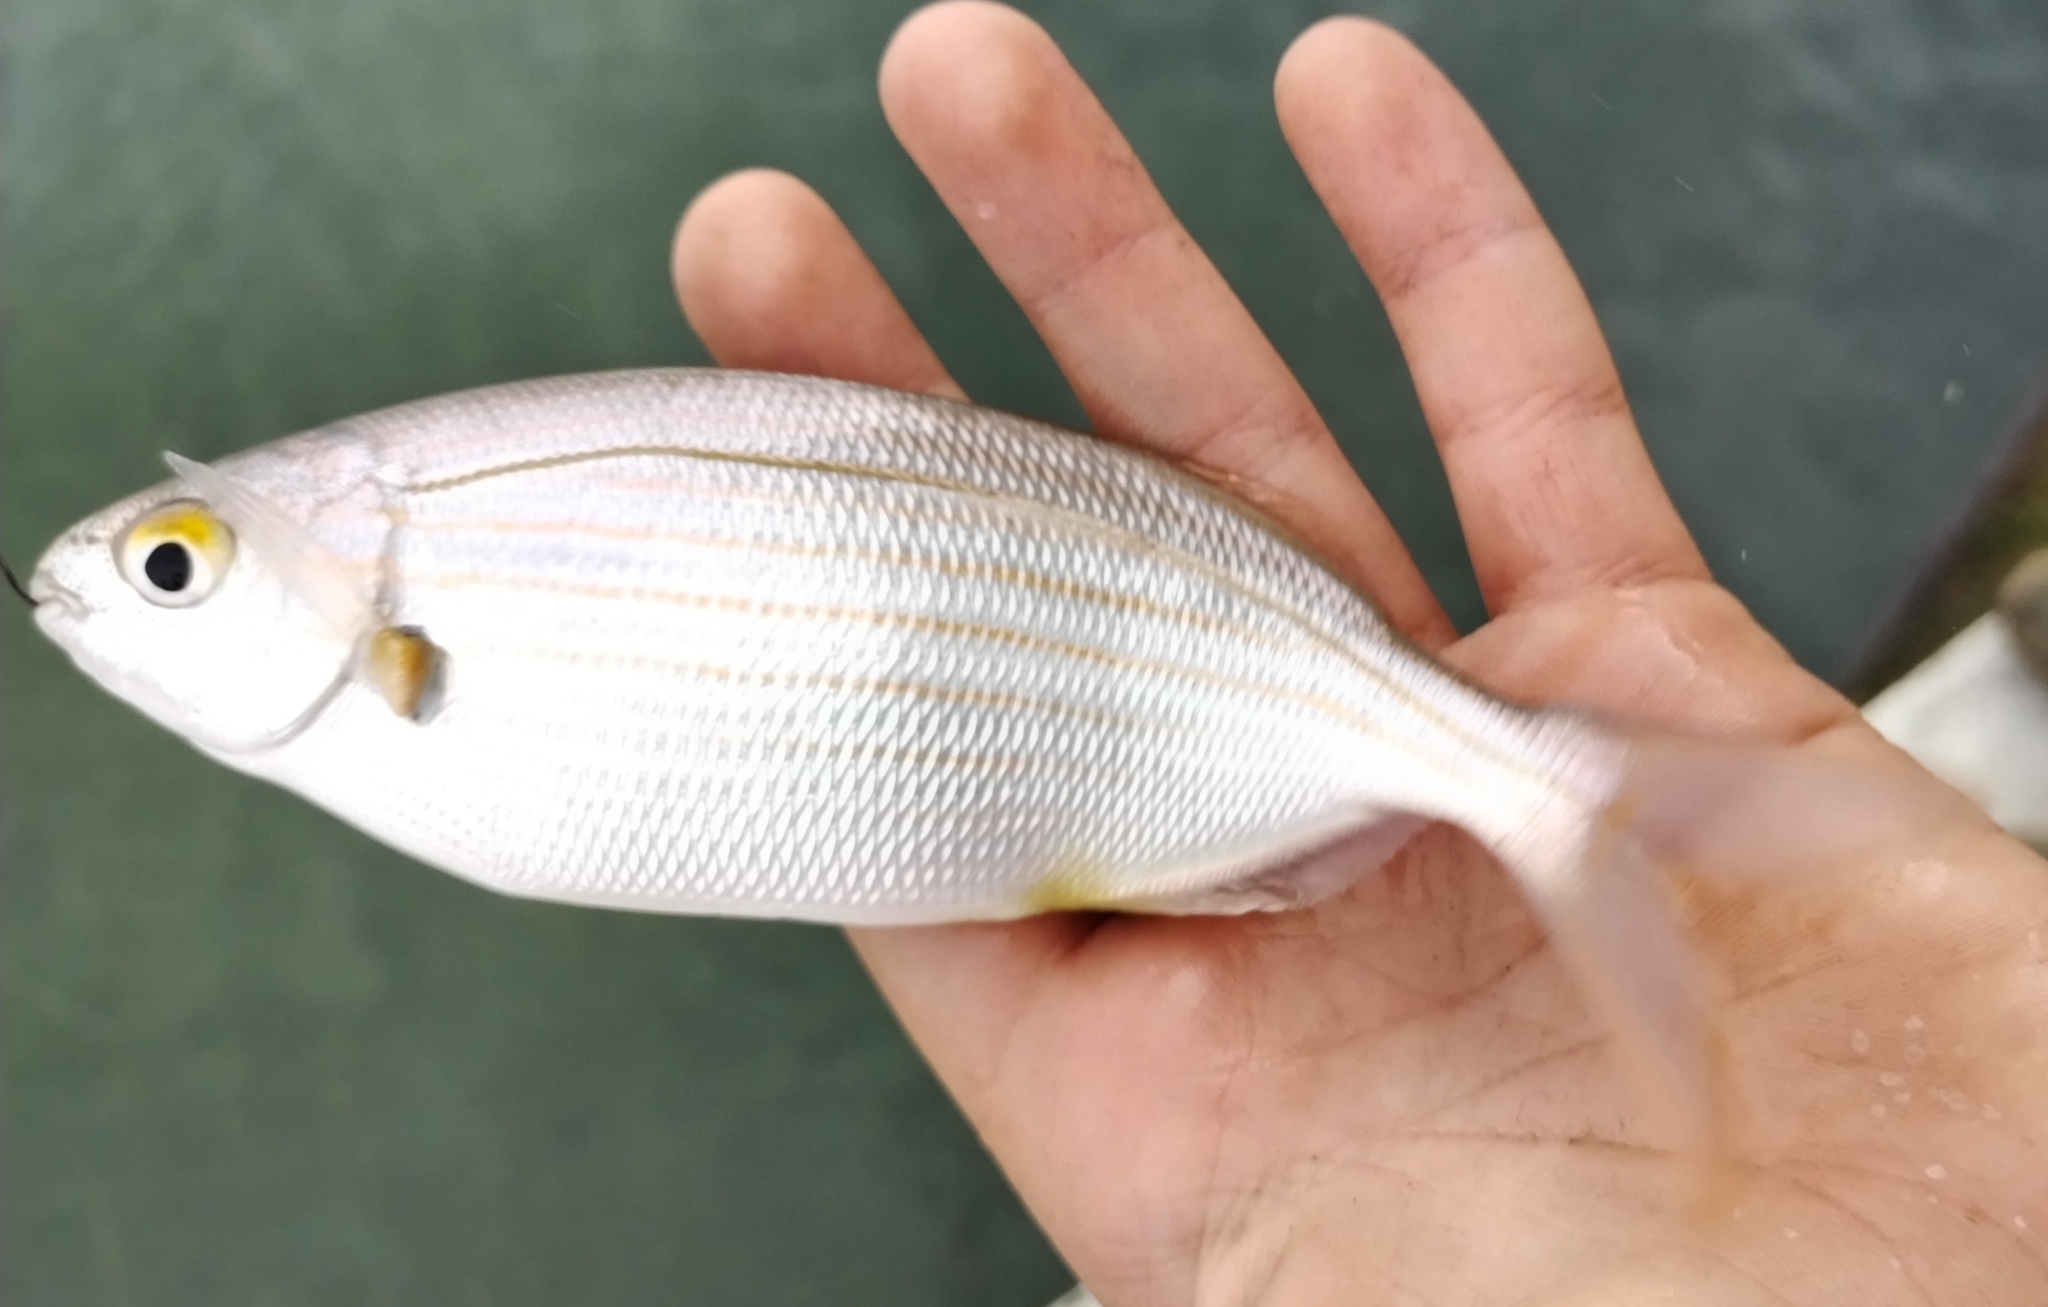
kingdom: Animalia
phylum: Chordata
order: Perciformes
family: Sparidae
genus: Sarpa
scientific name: Sarpa salpa
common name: Salema
